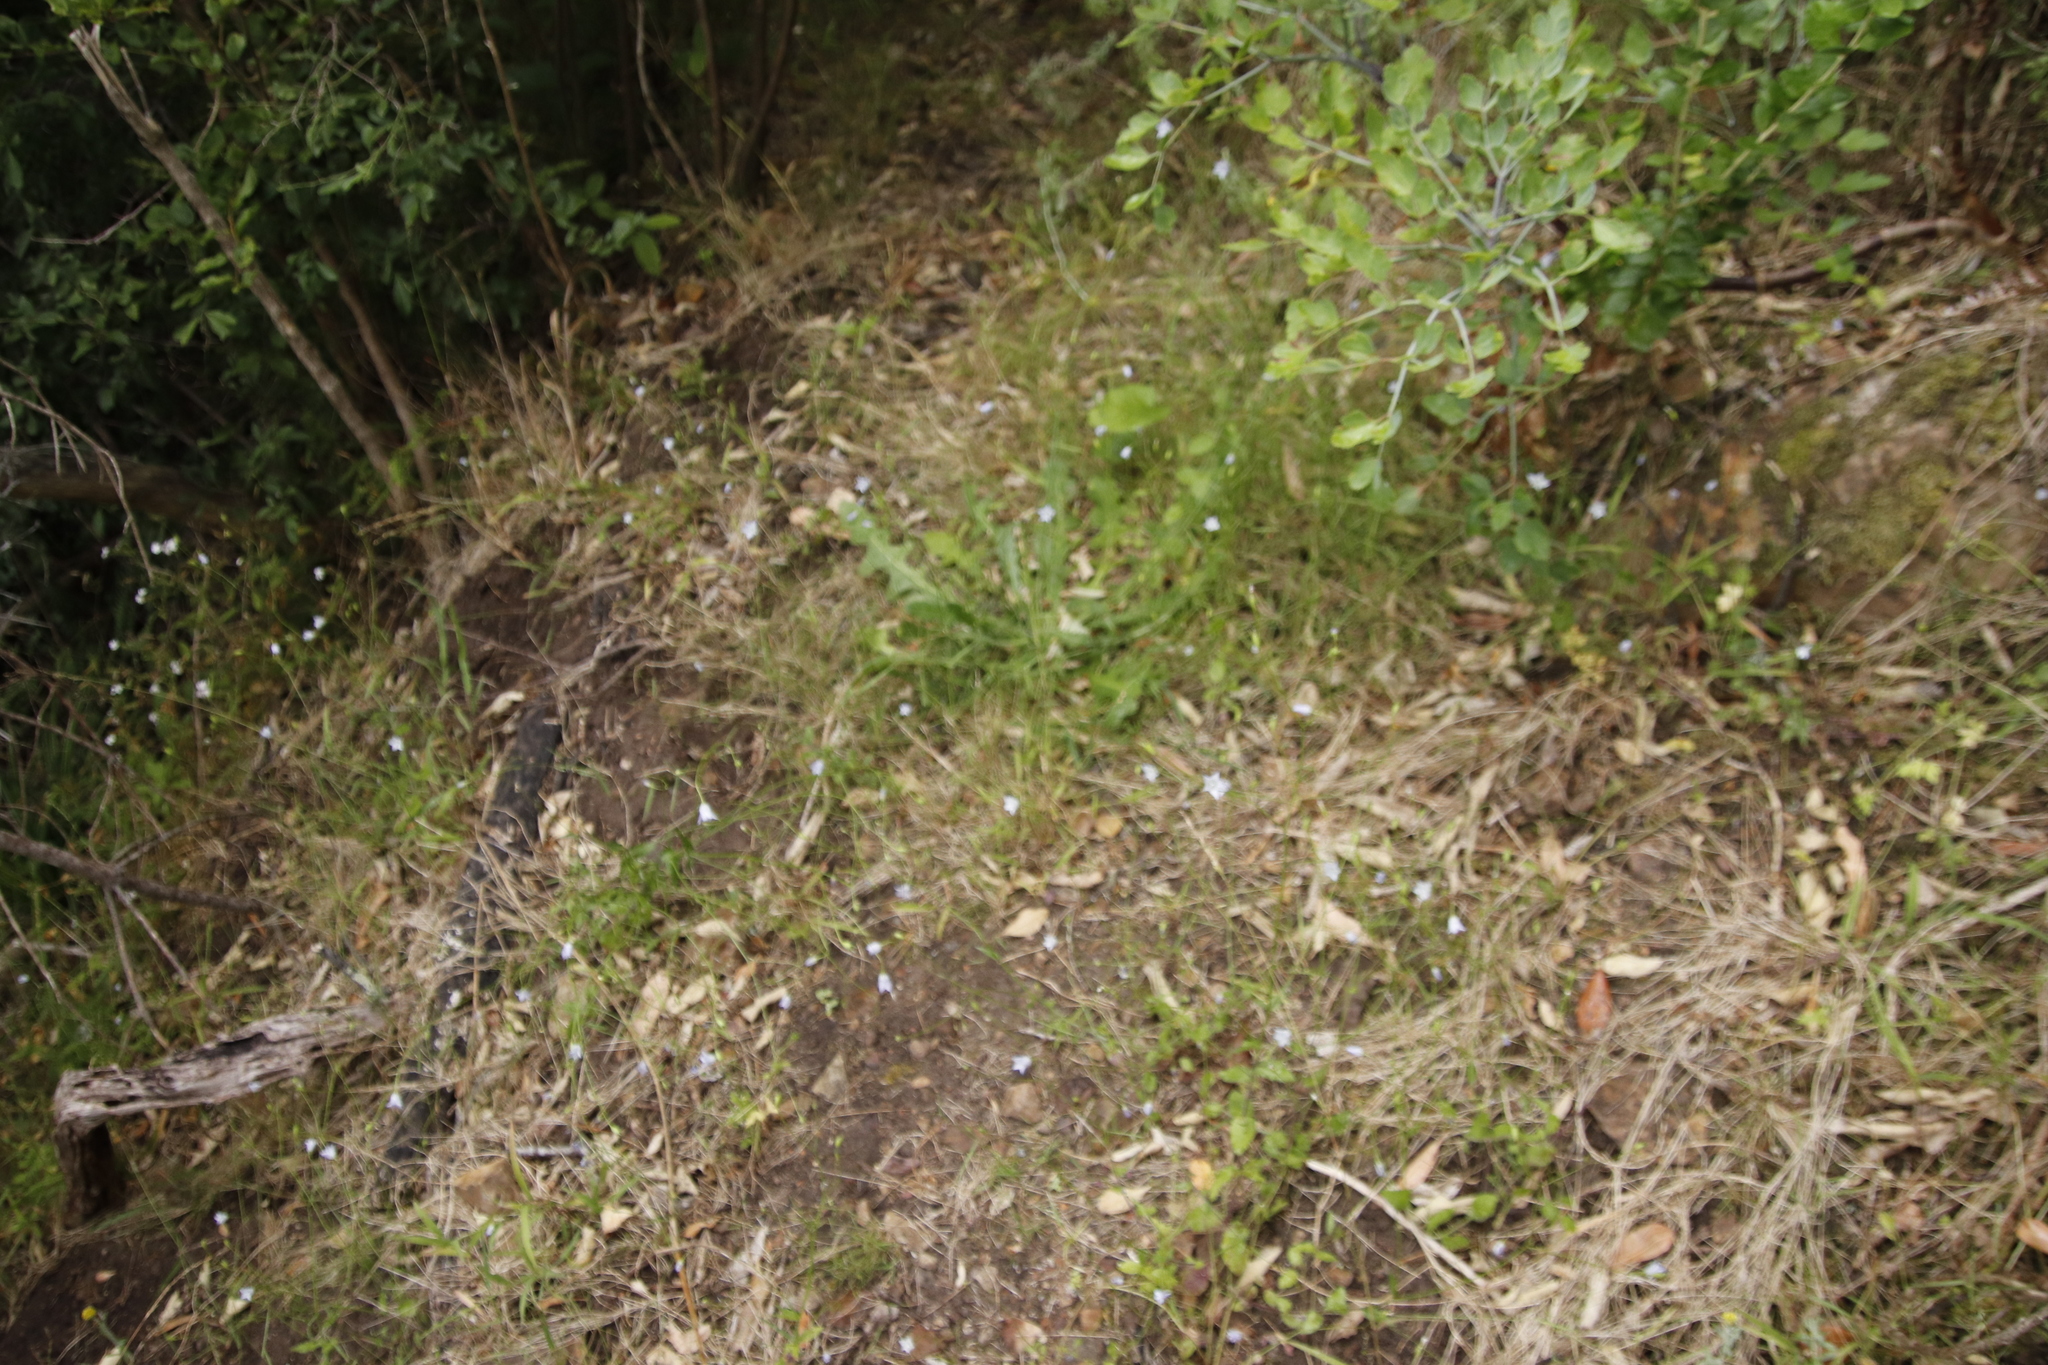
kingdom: Plantae
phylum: Tracheophyta
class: Magnoliopsida
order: Asterales
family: Campanulaceae
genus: Wahlenbergia
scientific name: Wahlenbergia obovata
